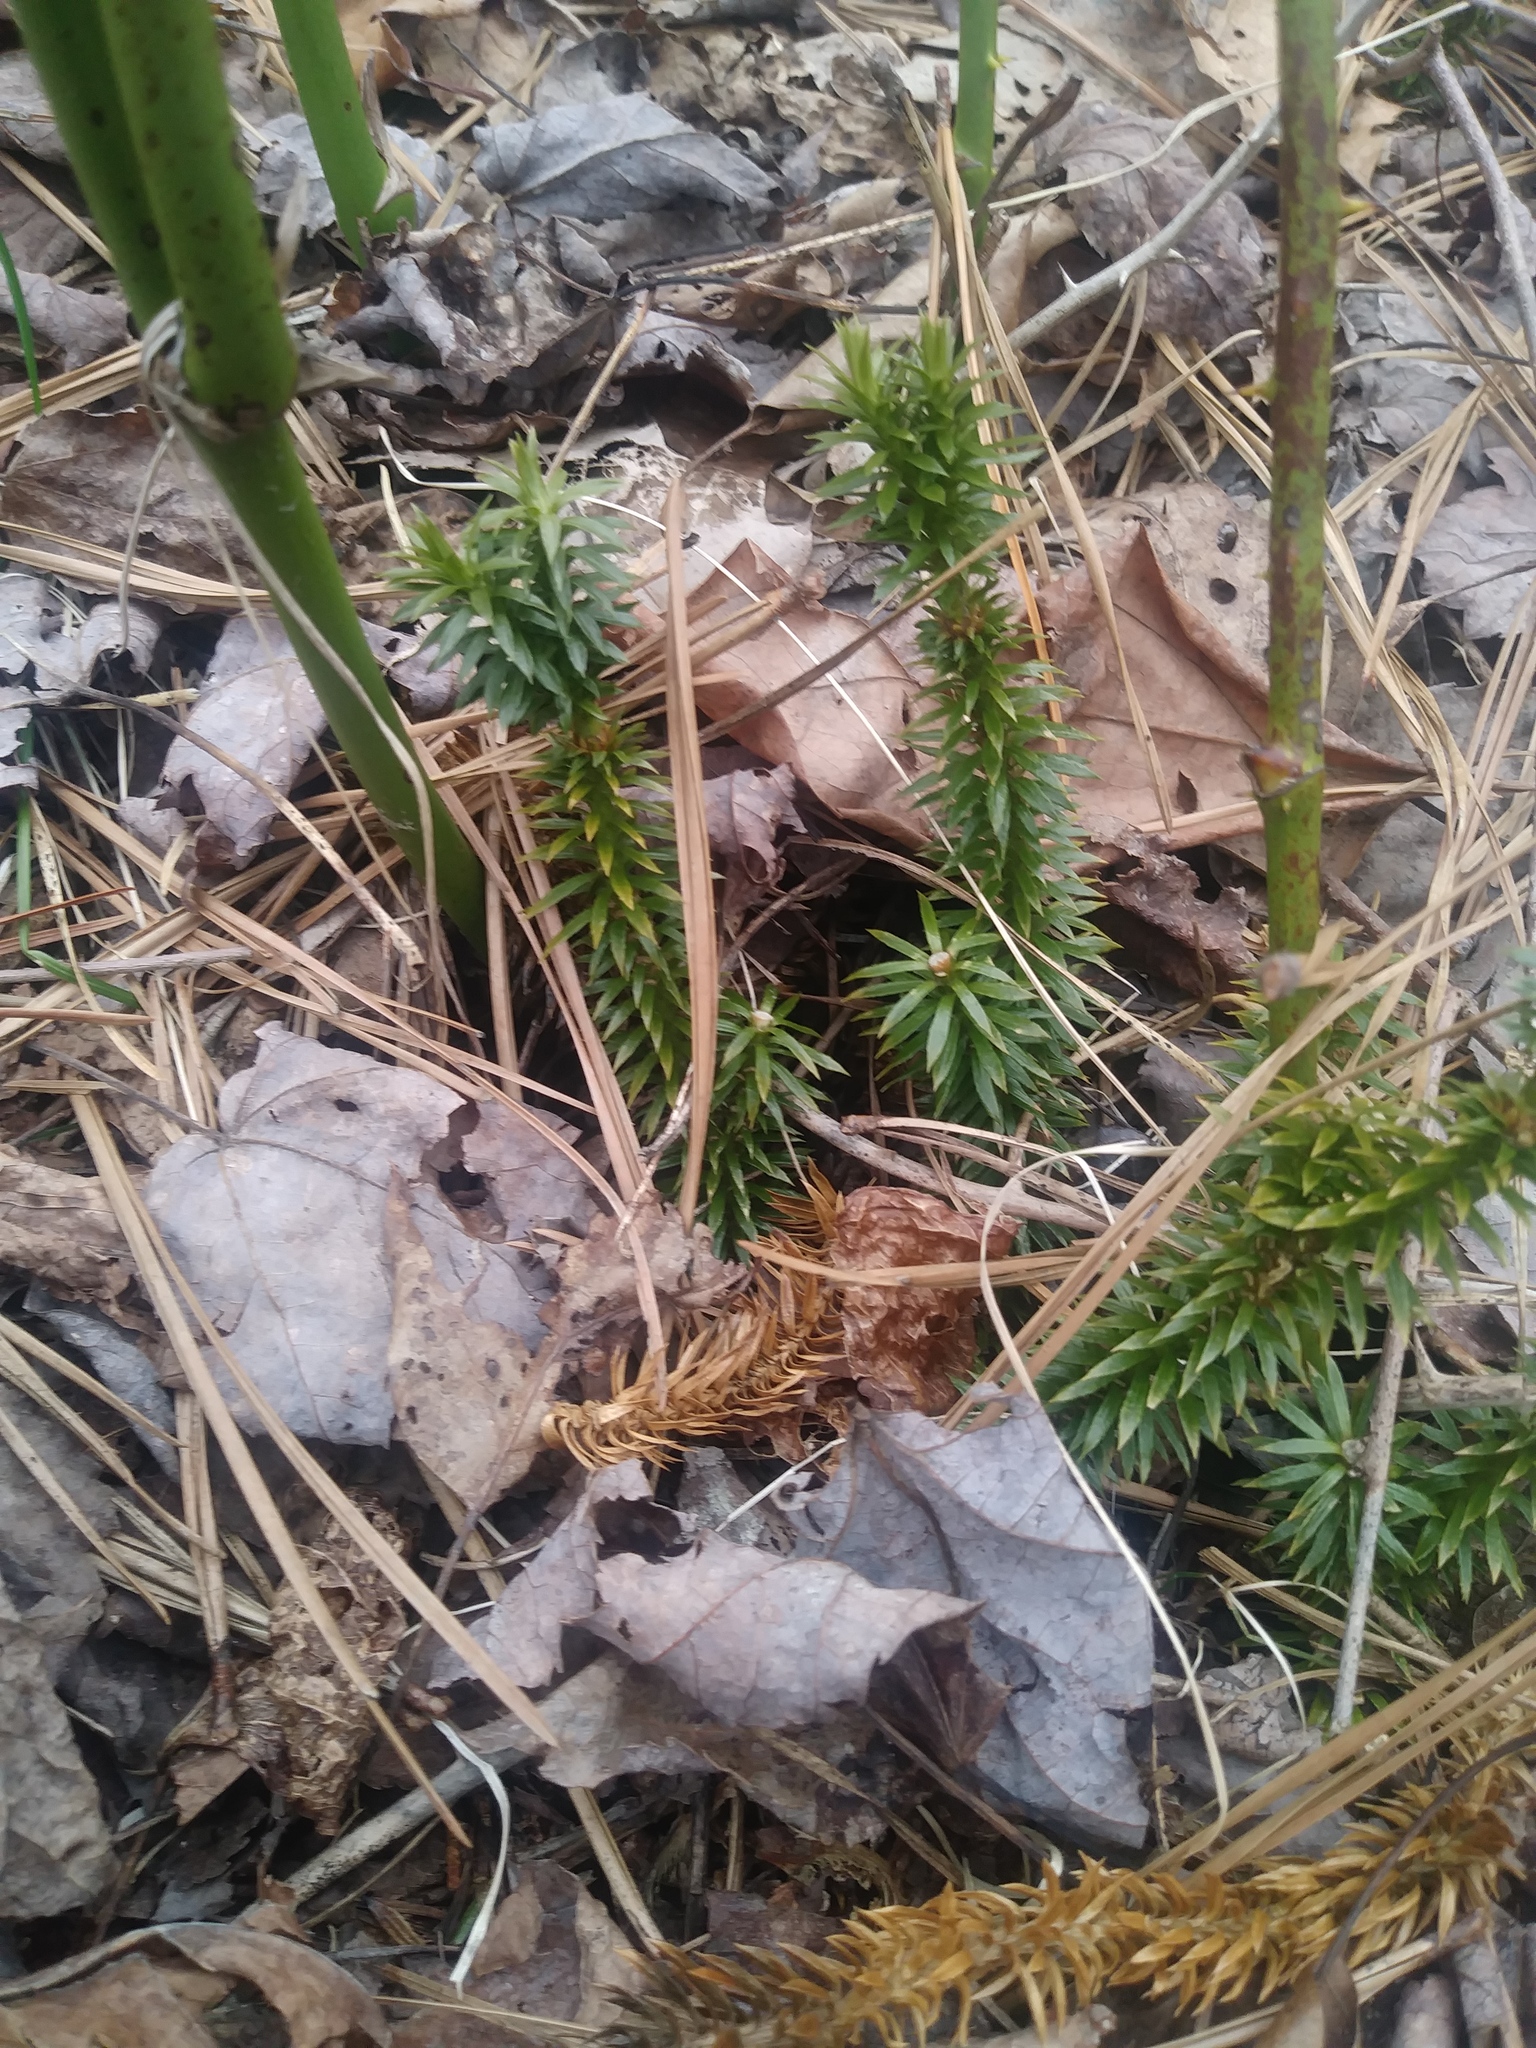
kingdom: Plantae
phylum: Tracheophyta
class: Lycopodiopsida
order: Lycopodiales
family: Lycopodiaceae
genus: Huperzia
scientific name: Huperzia lucidula
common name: Shining clubmoss
